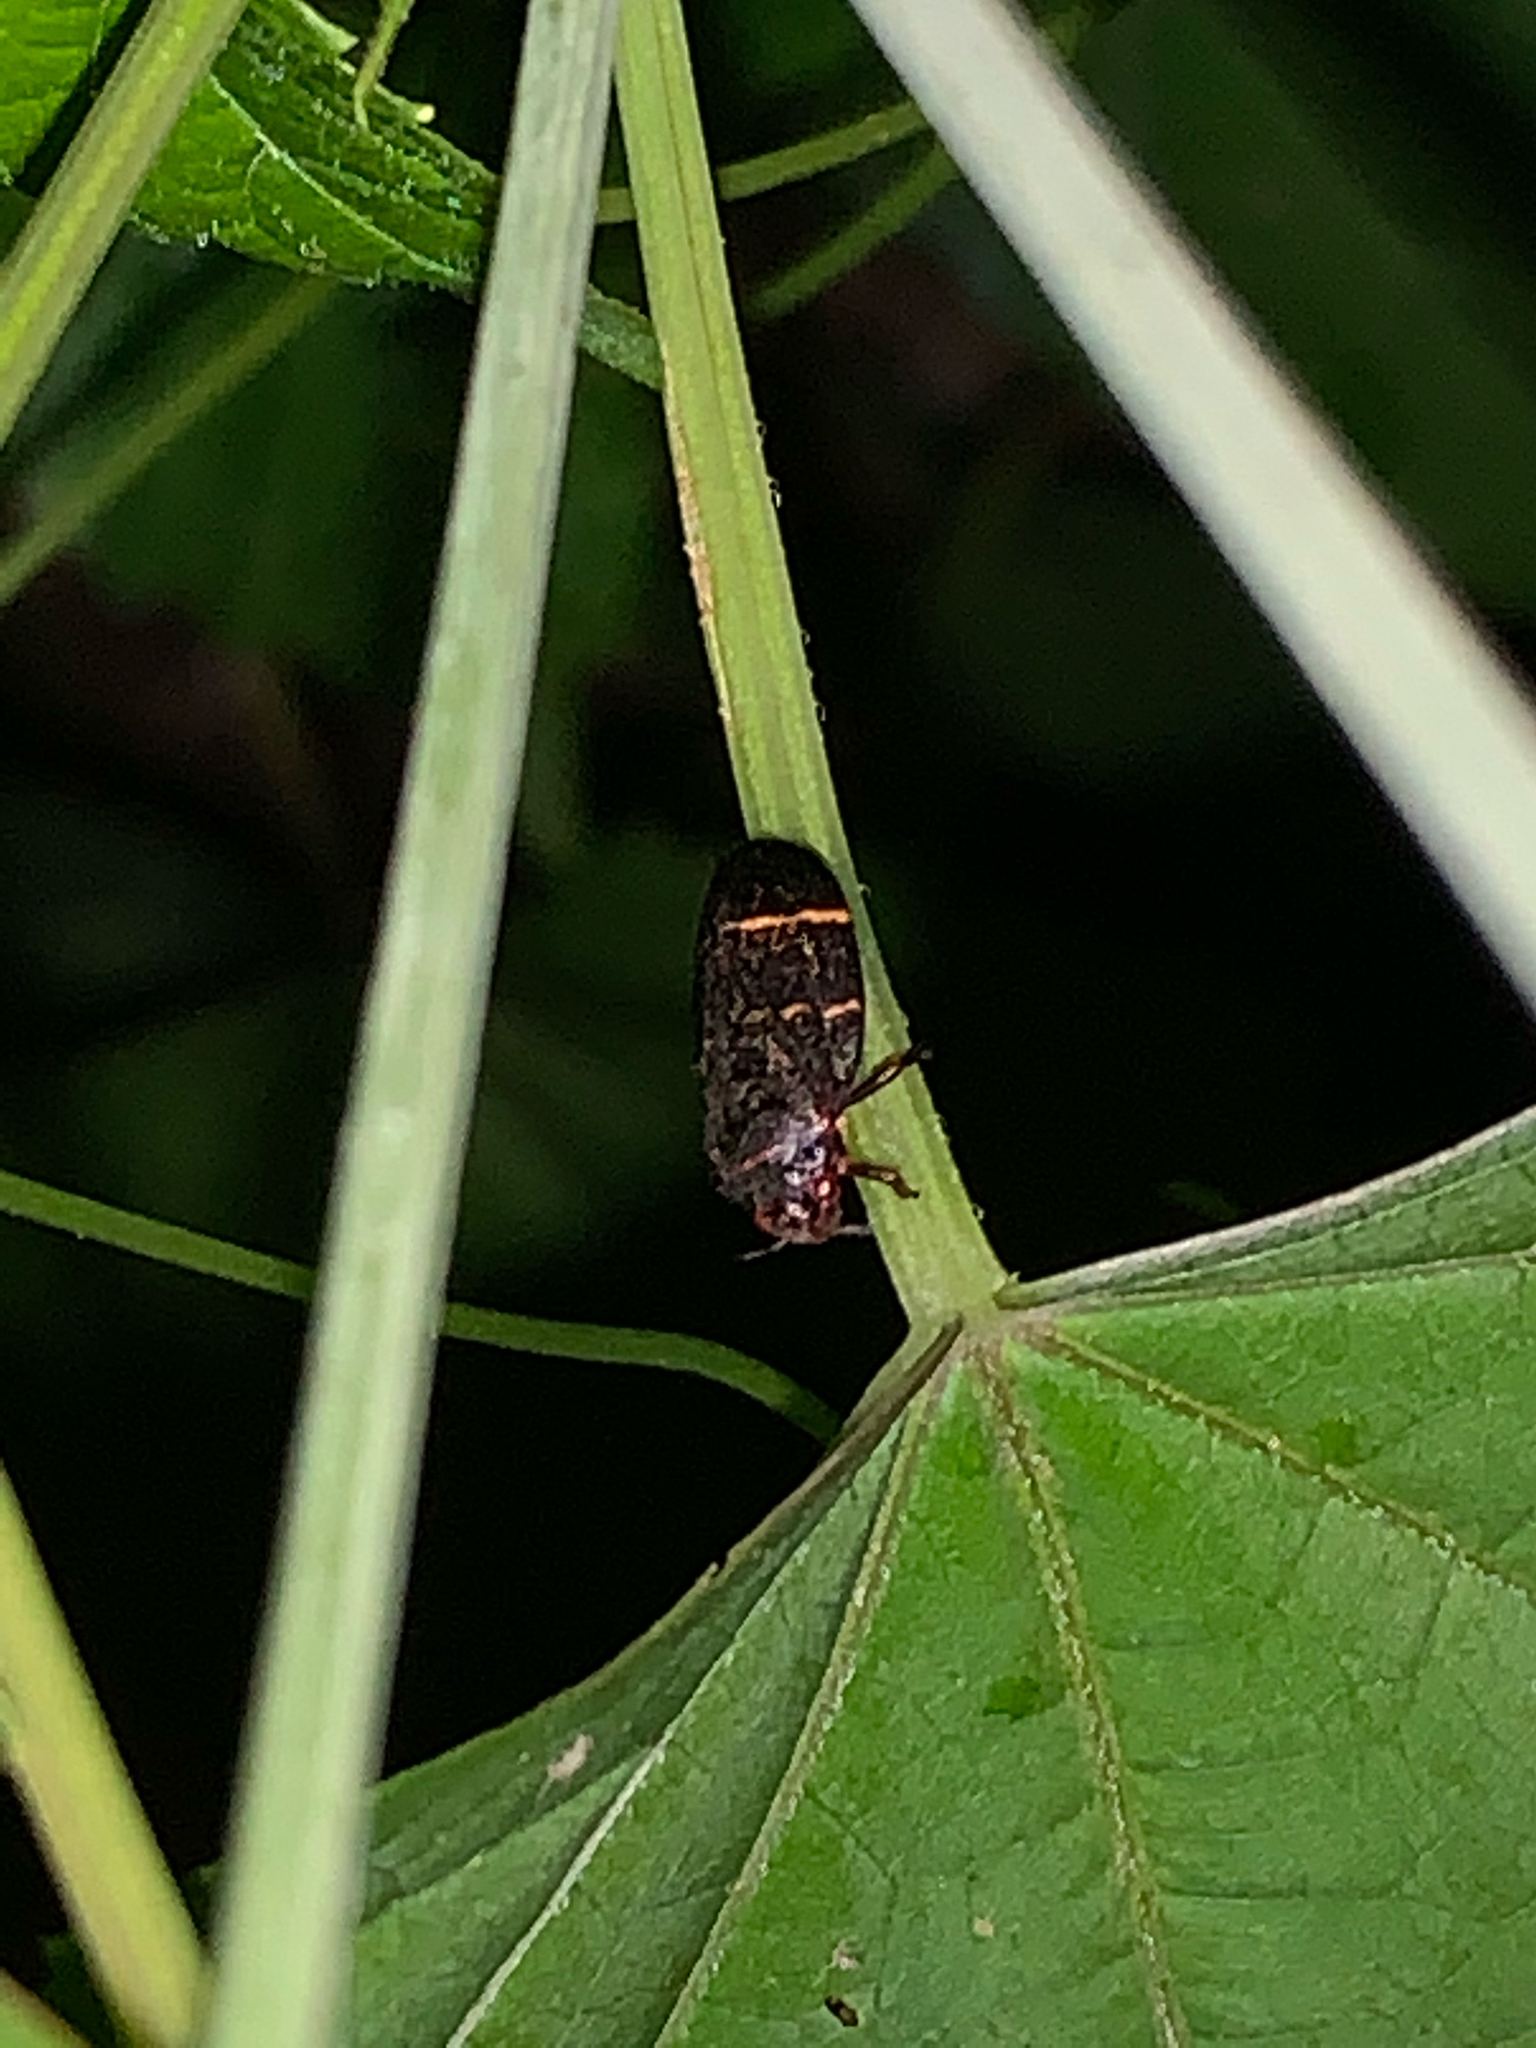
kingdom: Animalia
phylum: Arthropoda
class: Insecta
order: Hemiptera
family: Cercopidae
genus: Prosapia
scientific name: Prosapia bicincta
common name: Twolined spittlebug
